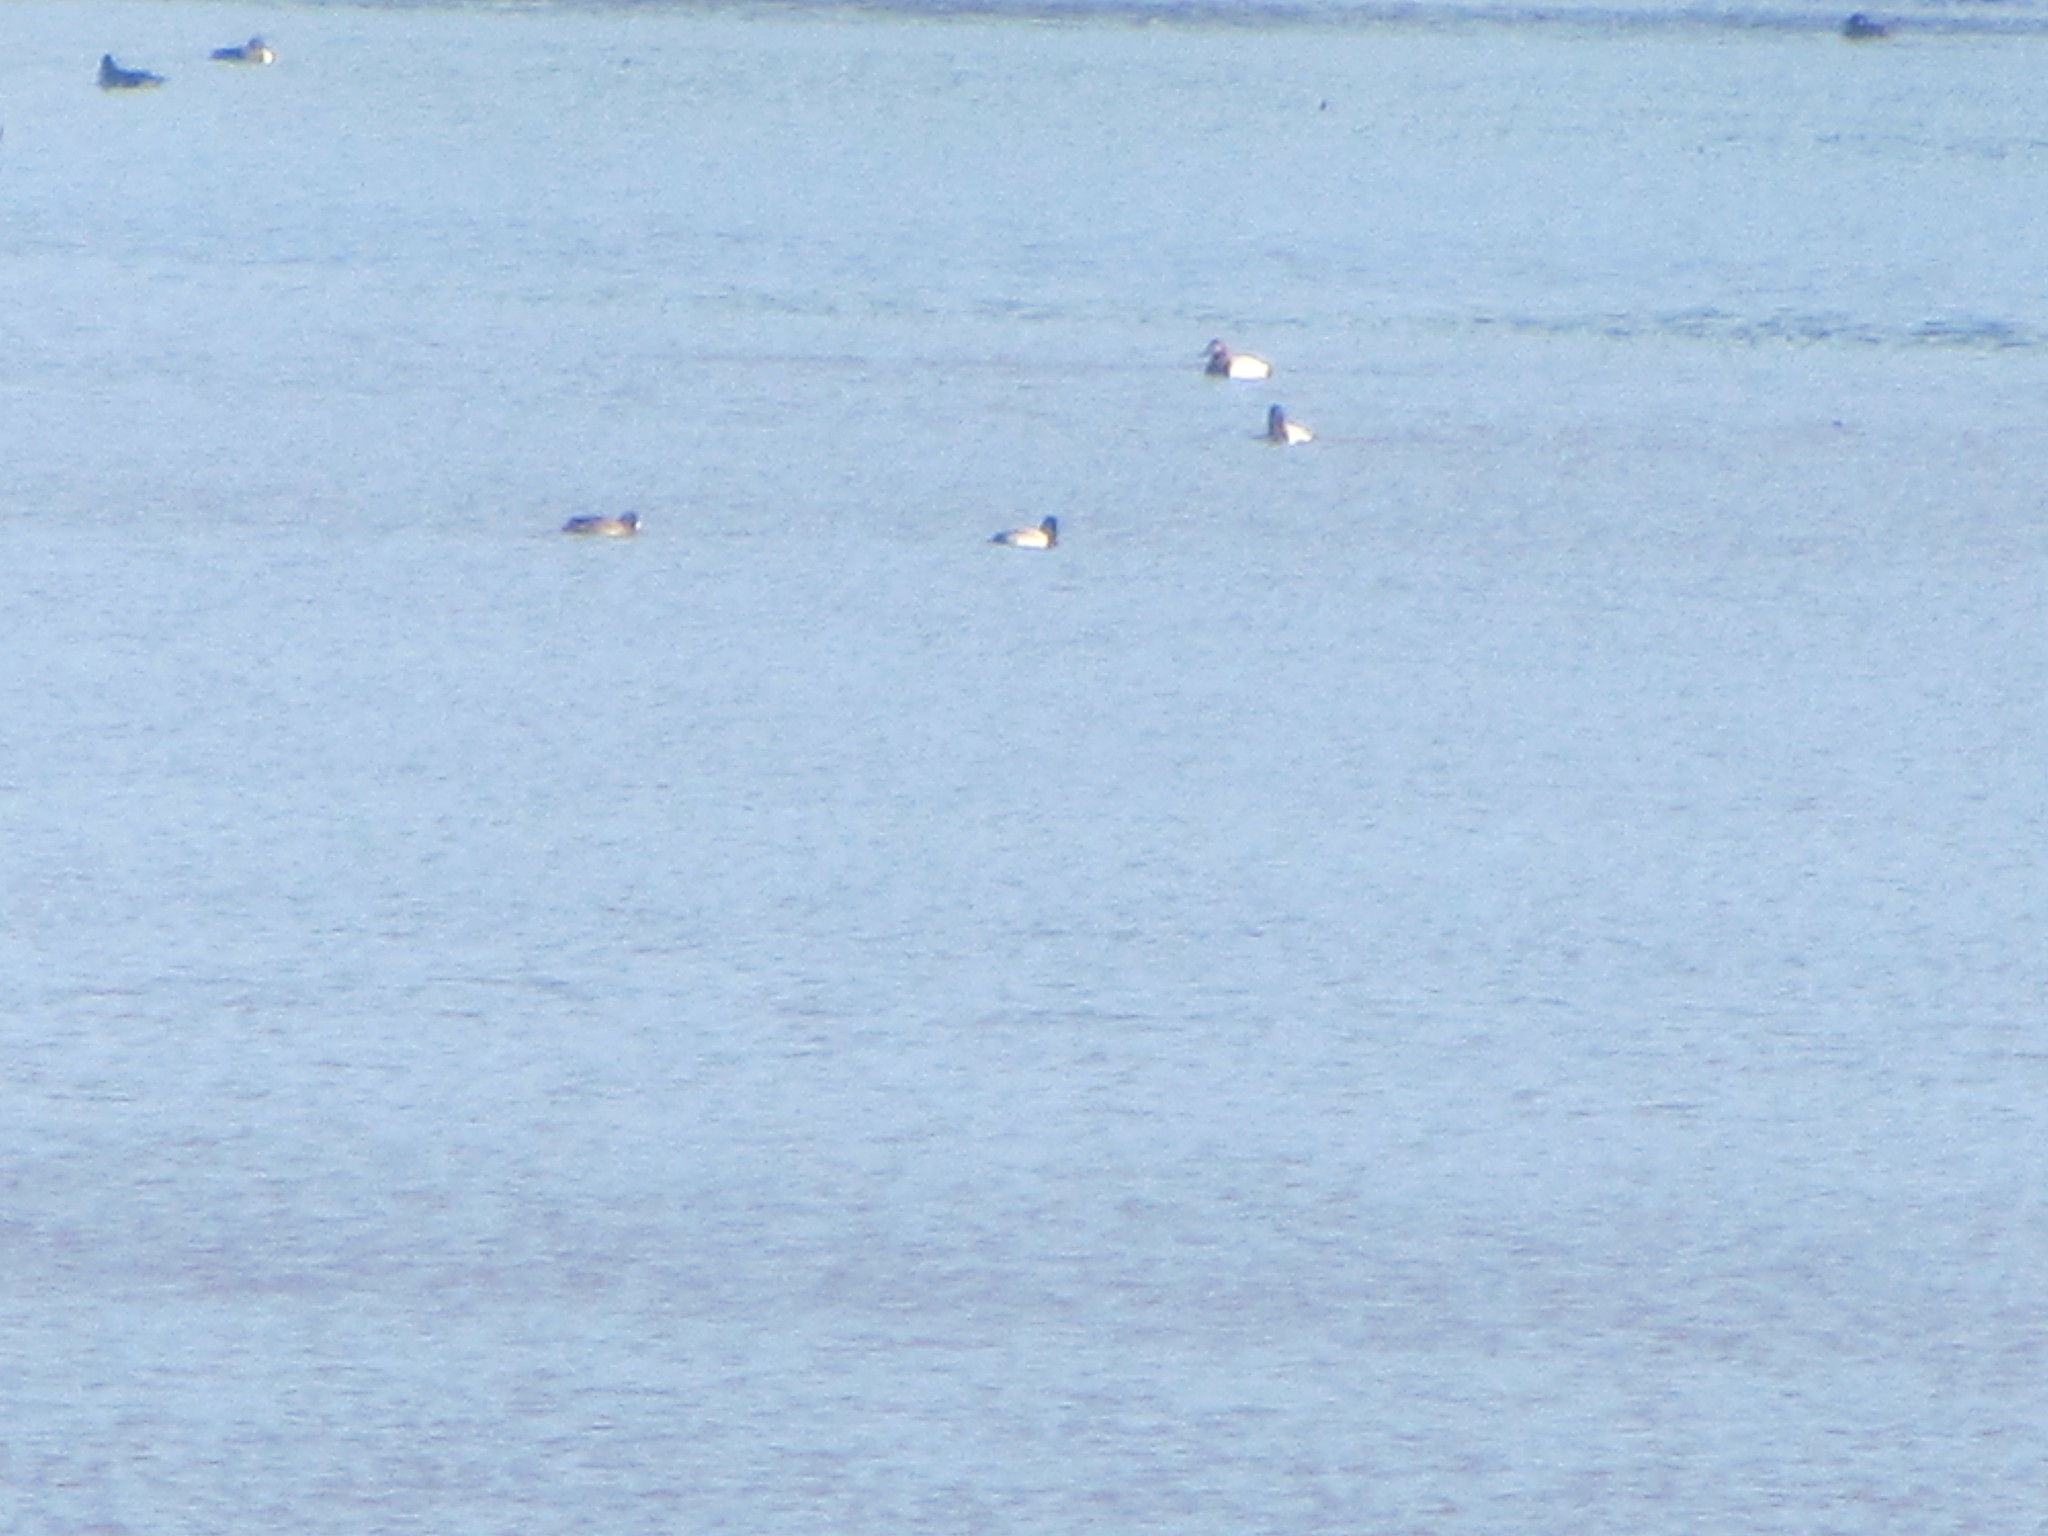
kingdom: Animalia
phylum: Chordata
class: Aves
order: Anseriformes
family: Anatidae
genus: Aythya
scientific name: Aythya valisineria
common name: Canvasback
